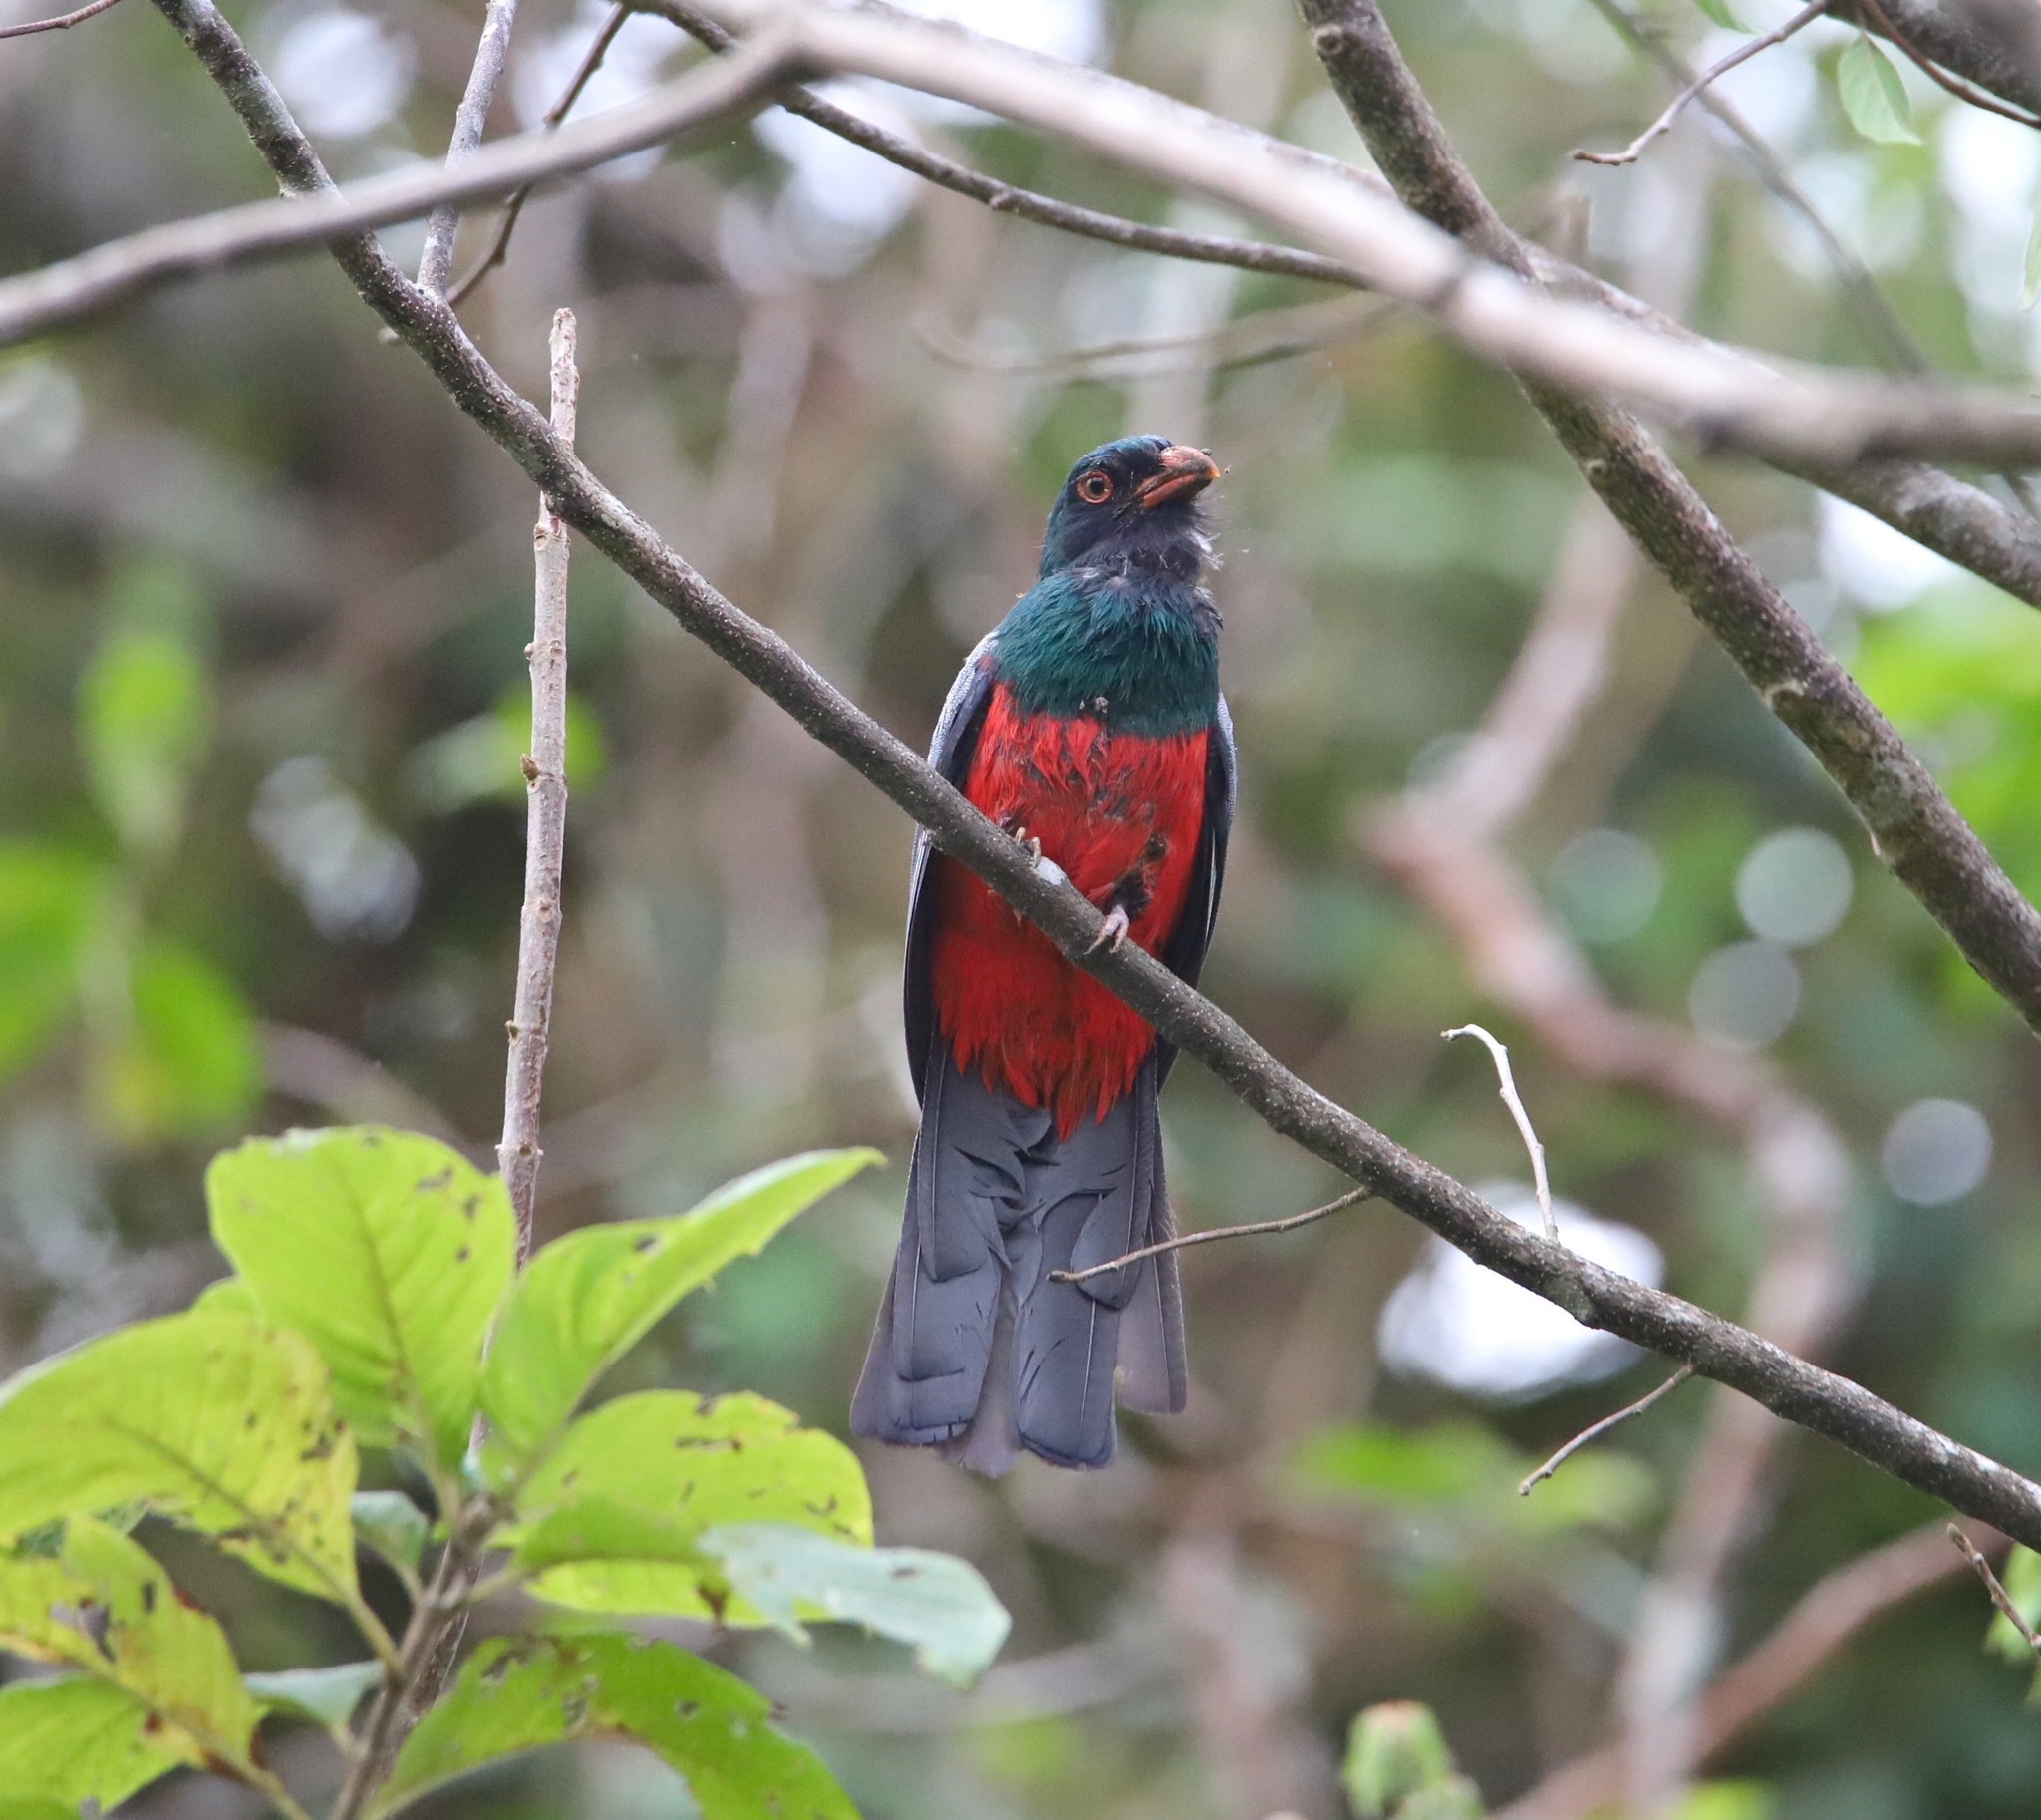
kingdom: Animalia
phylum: Chordata
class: Aves
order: Trogoniformes
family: Trogonidae
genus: Trogon
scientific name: Trogon massena
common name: Slaty-tailed trogon
